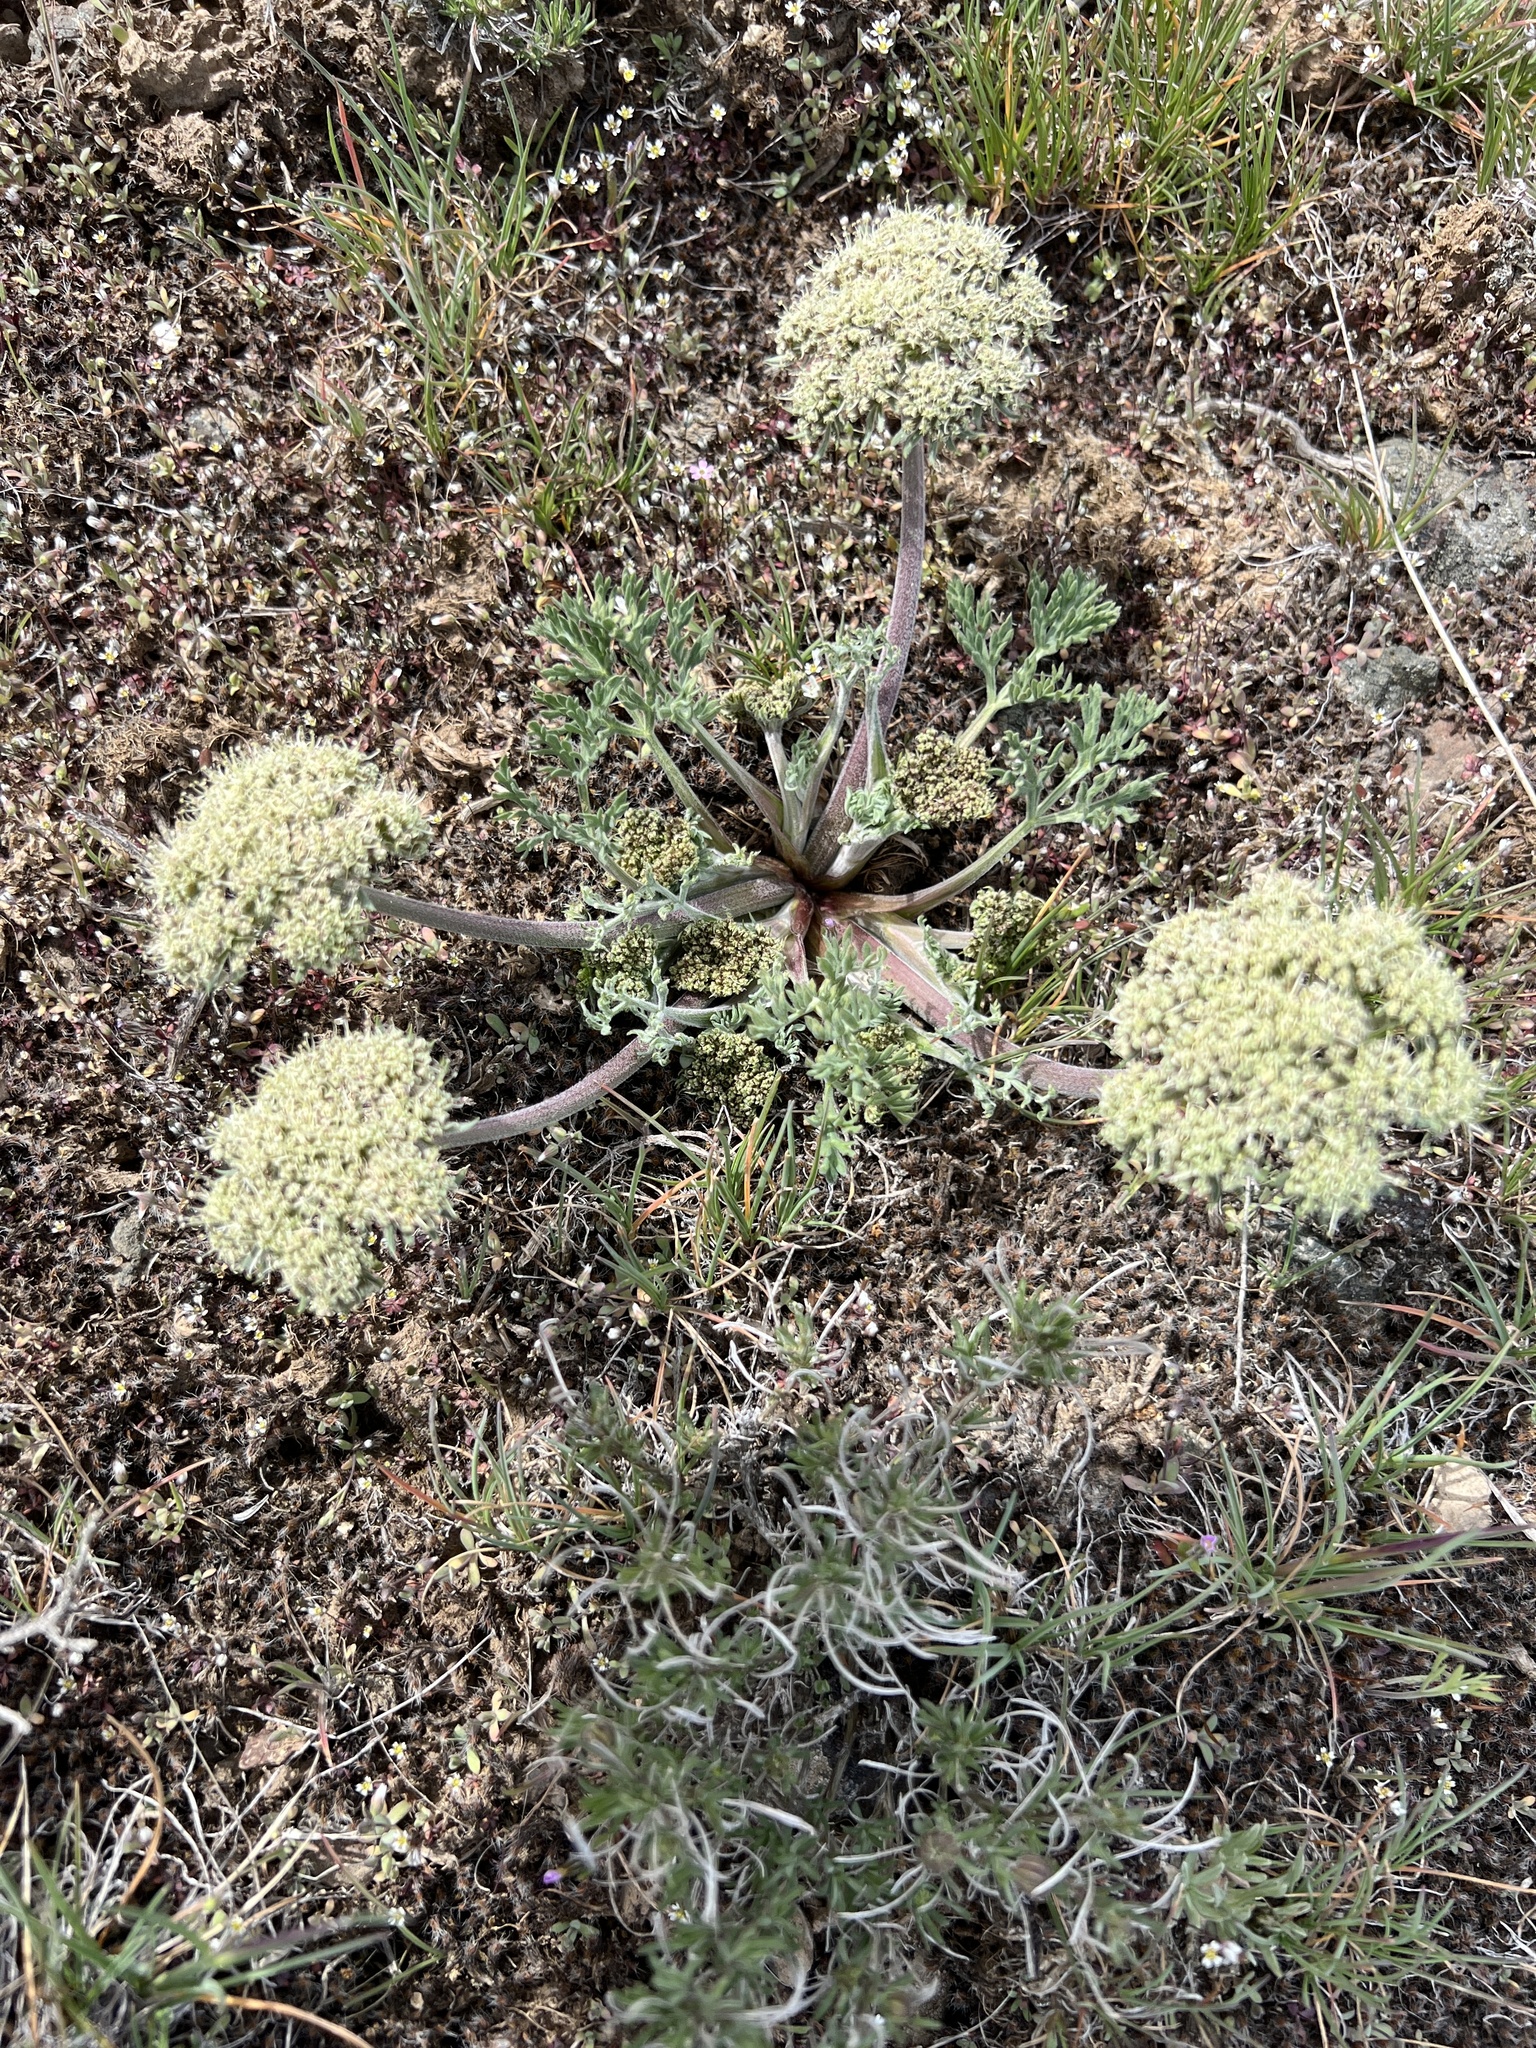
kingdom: Plantae
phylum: Tracheophyta
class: Magnoliopsida
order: Apiales
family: Apiaceae
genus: Lomatium
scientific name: Lomatium macrocarpum
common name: Big-seed biscuitroot
